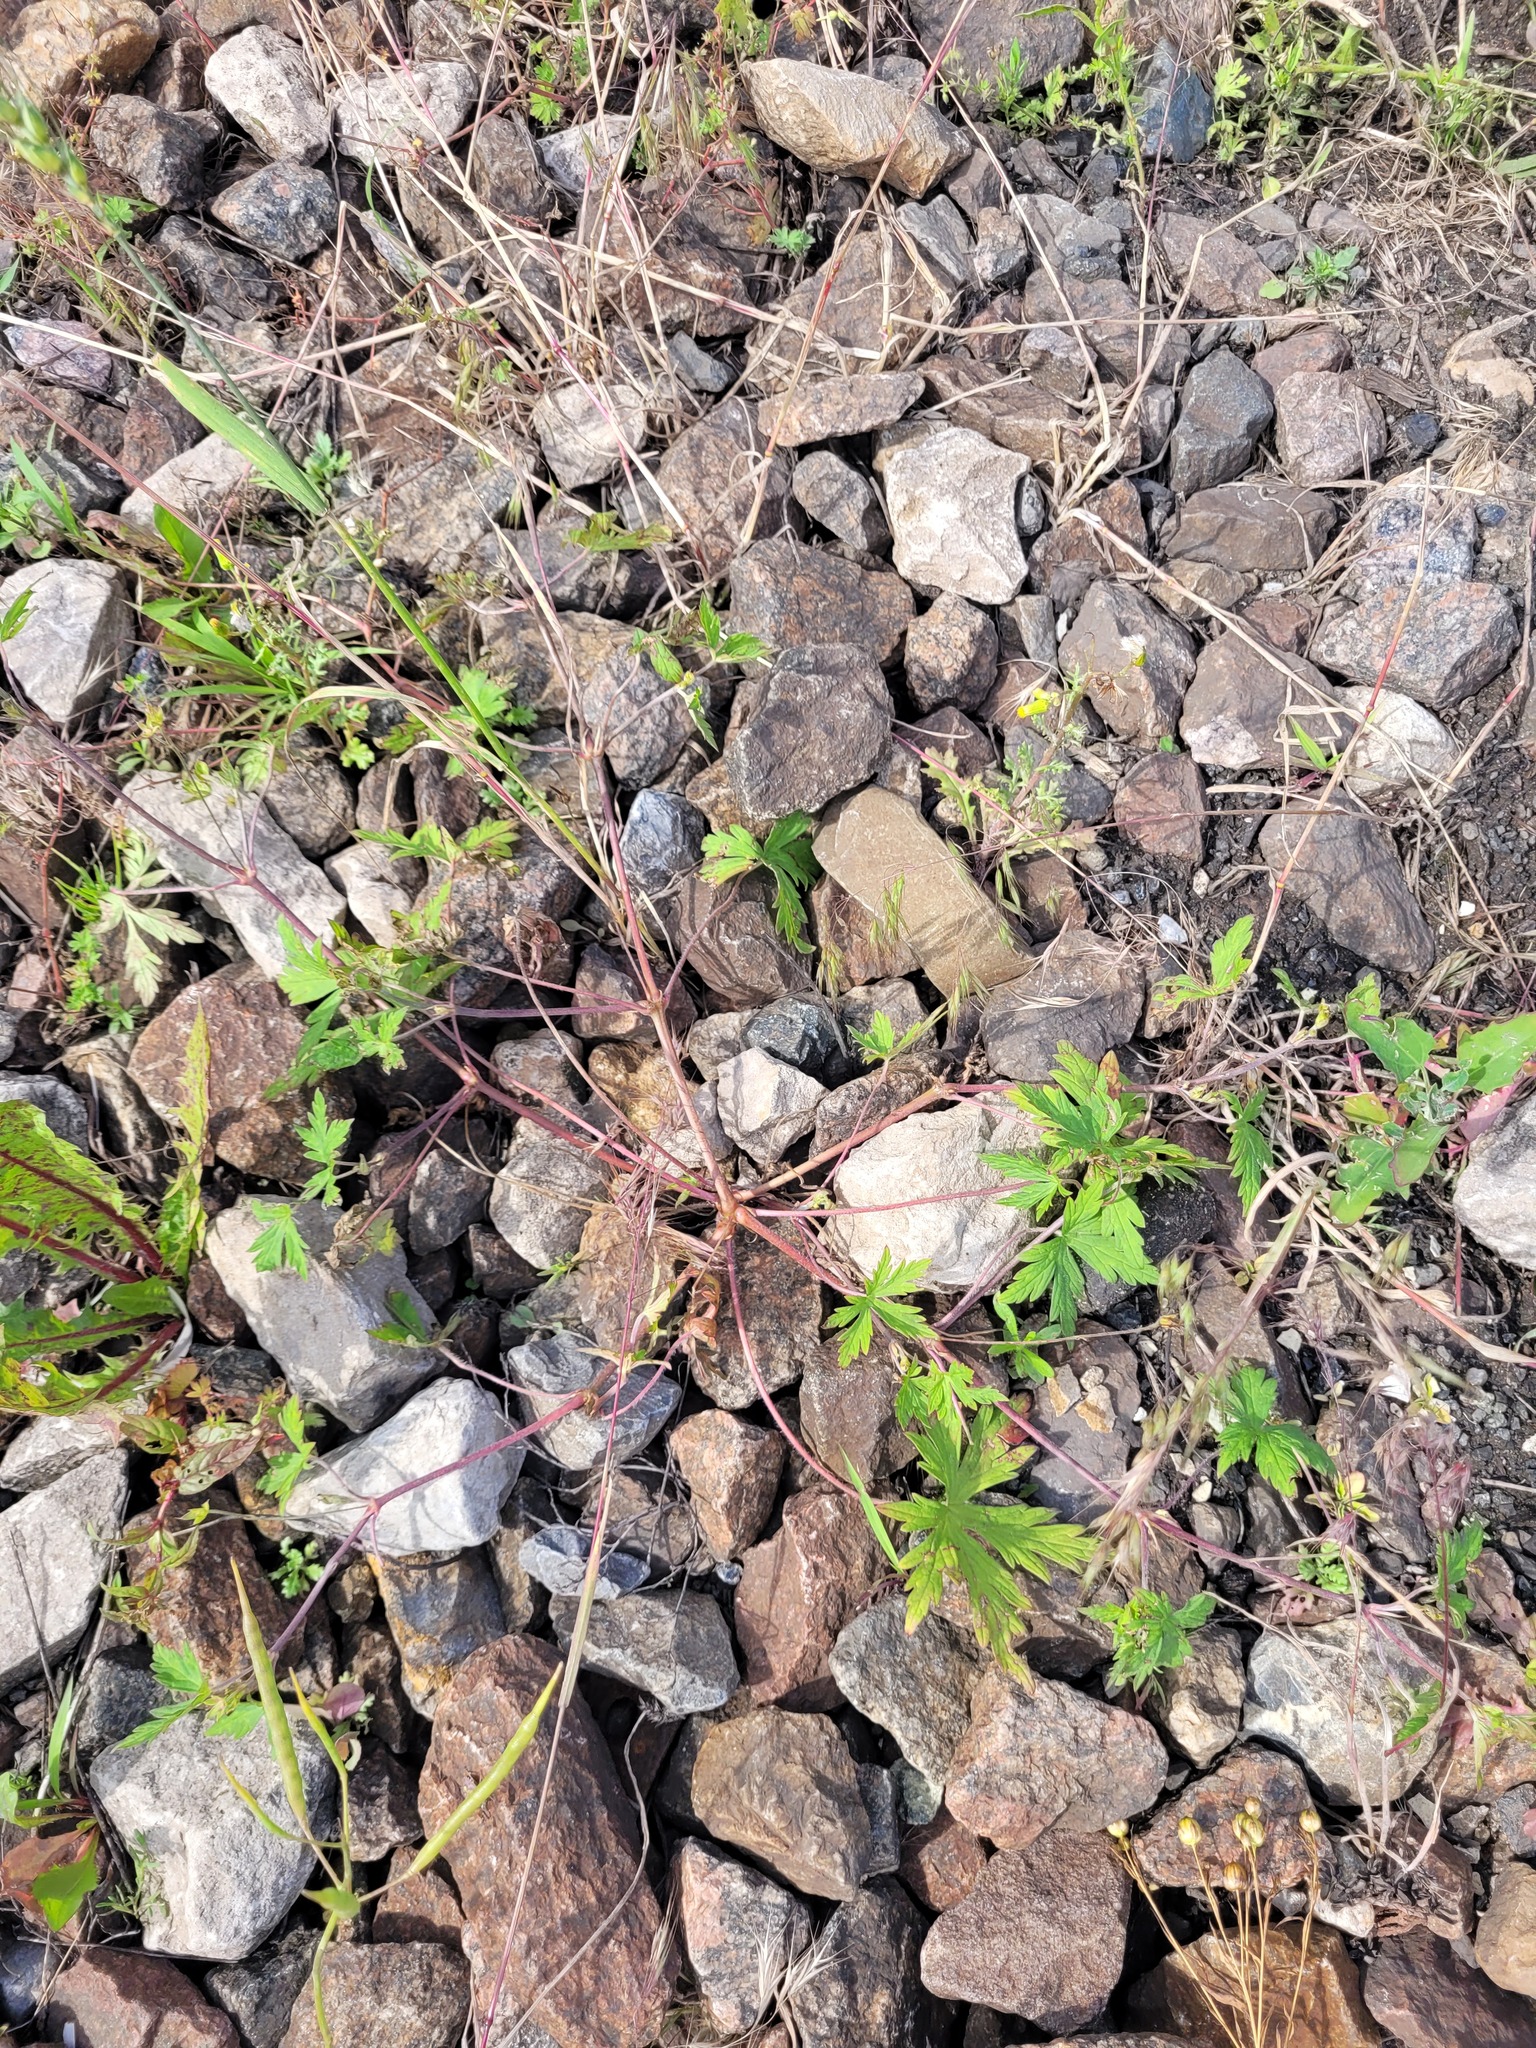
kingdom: Plantae
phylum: Tracheophyta
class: Magnoliopsida
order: Geraniales
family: Geraniaceae
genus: Geranium
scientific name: Geranium sibiricum
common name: Siberian crane's-bill
